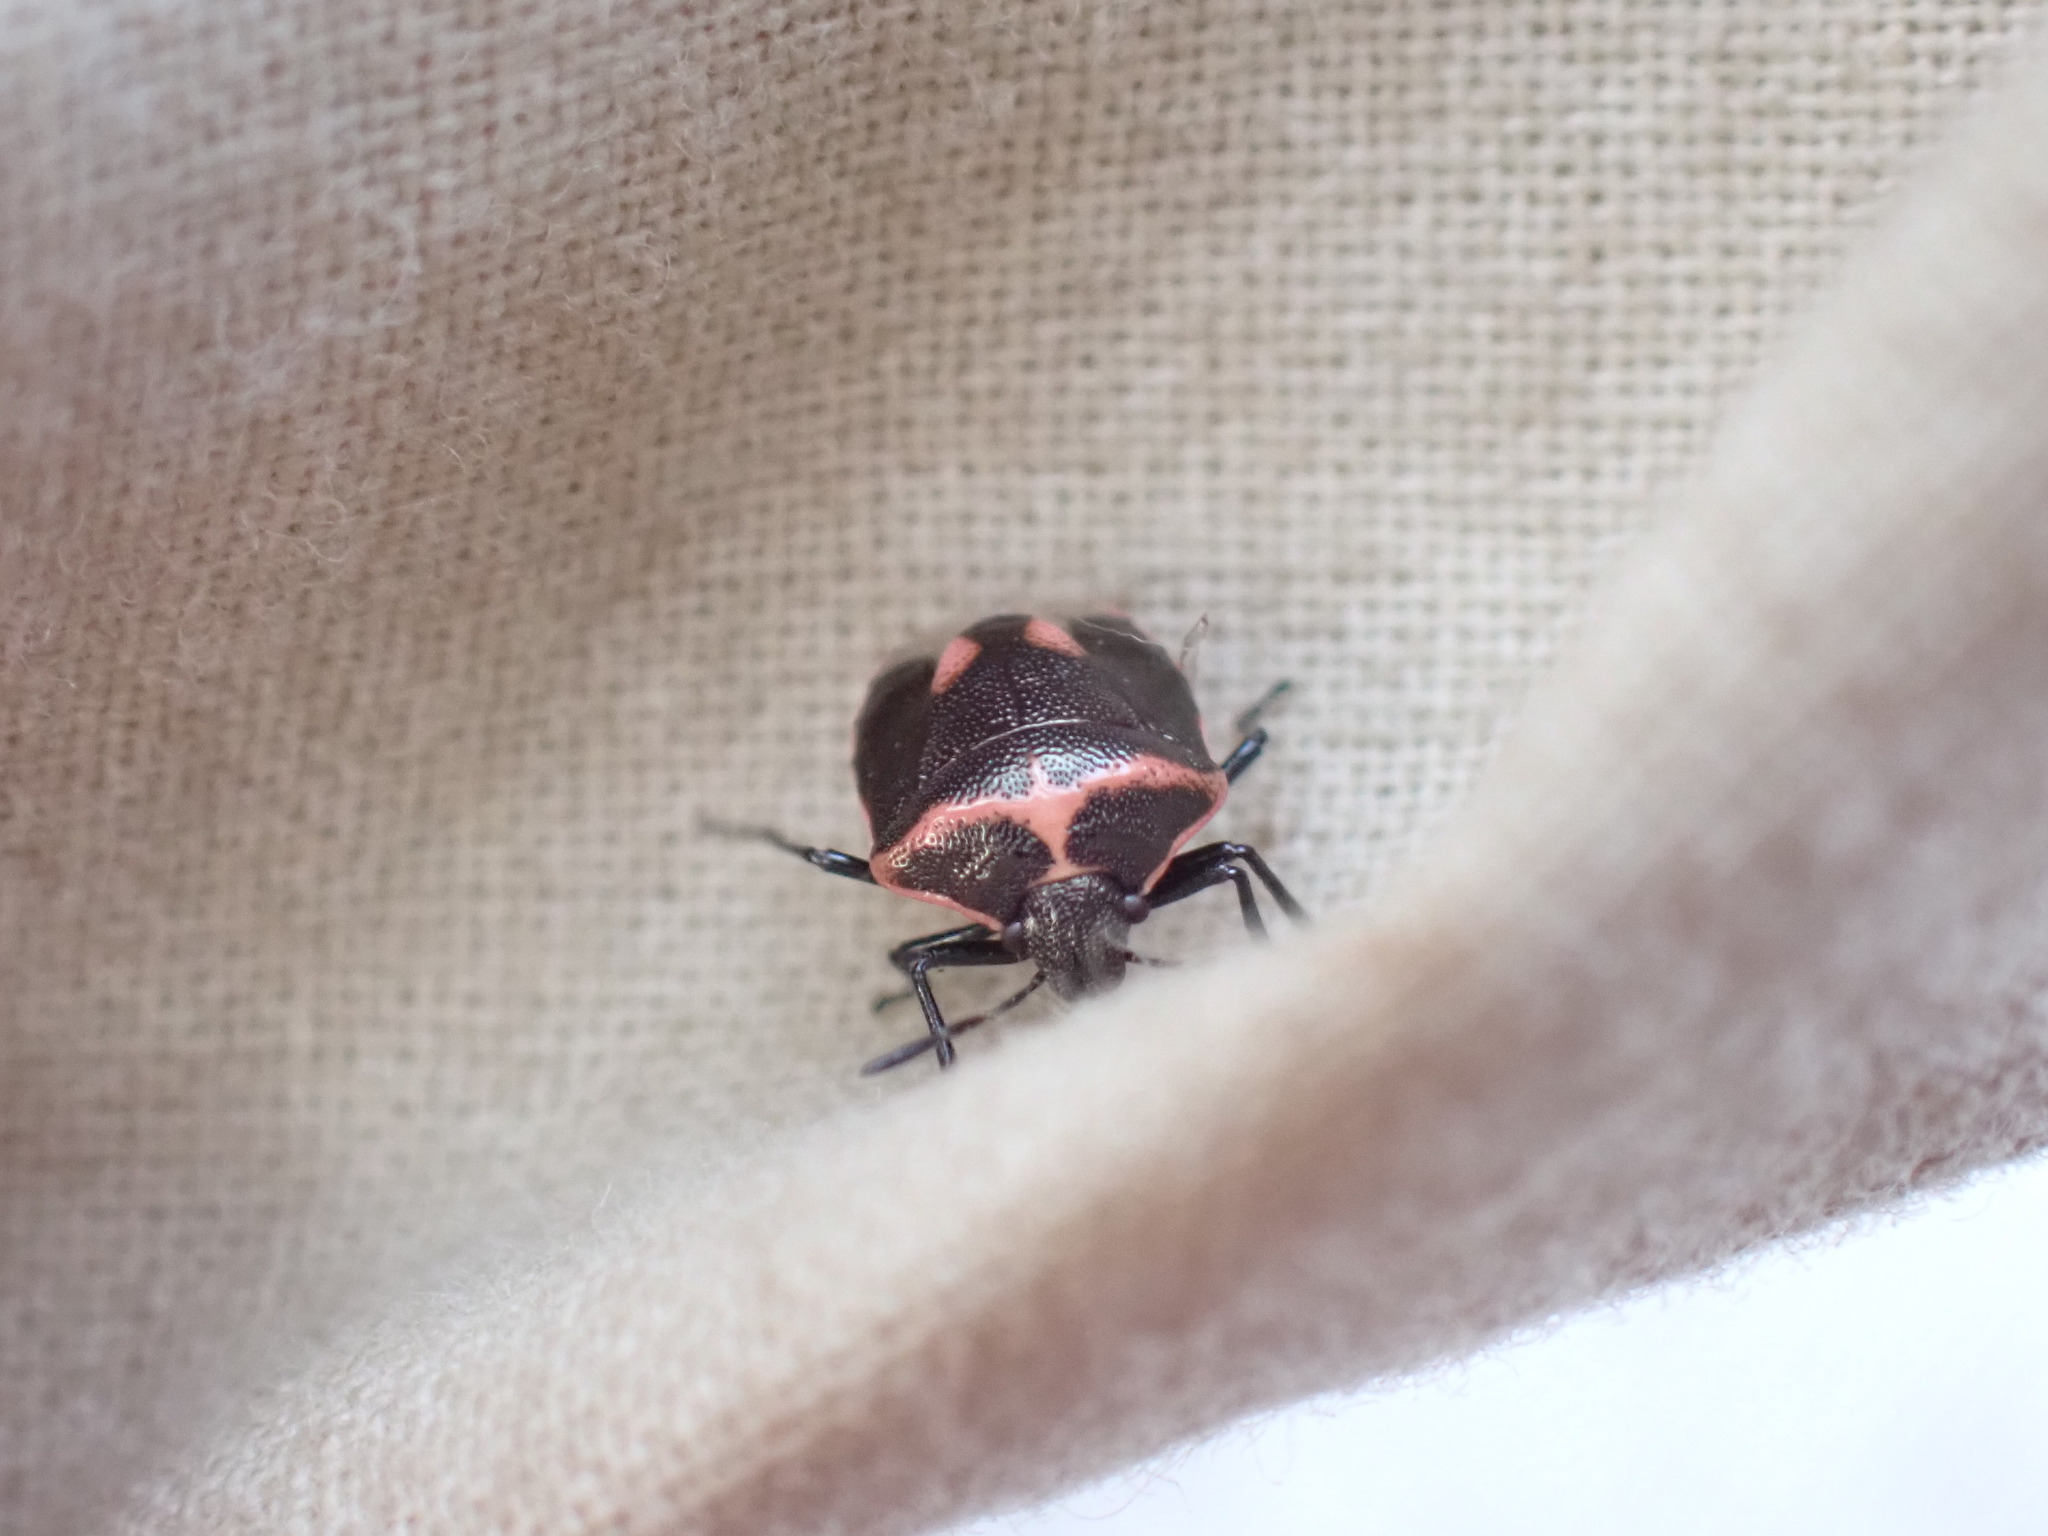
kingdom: Animalia
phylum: Arthropoda
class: Insecta
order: Hemiptera
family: Pentatomidae
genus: Cosmopepla
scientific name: Cosmopepla lintneriana
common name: Twice-stabbed stink bug
